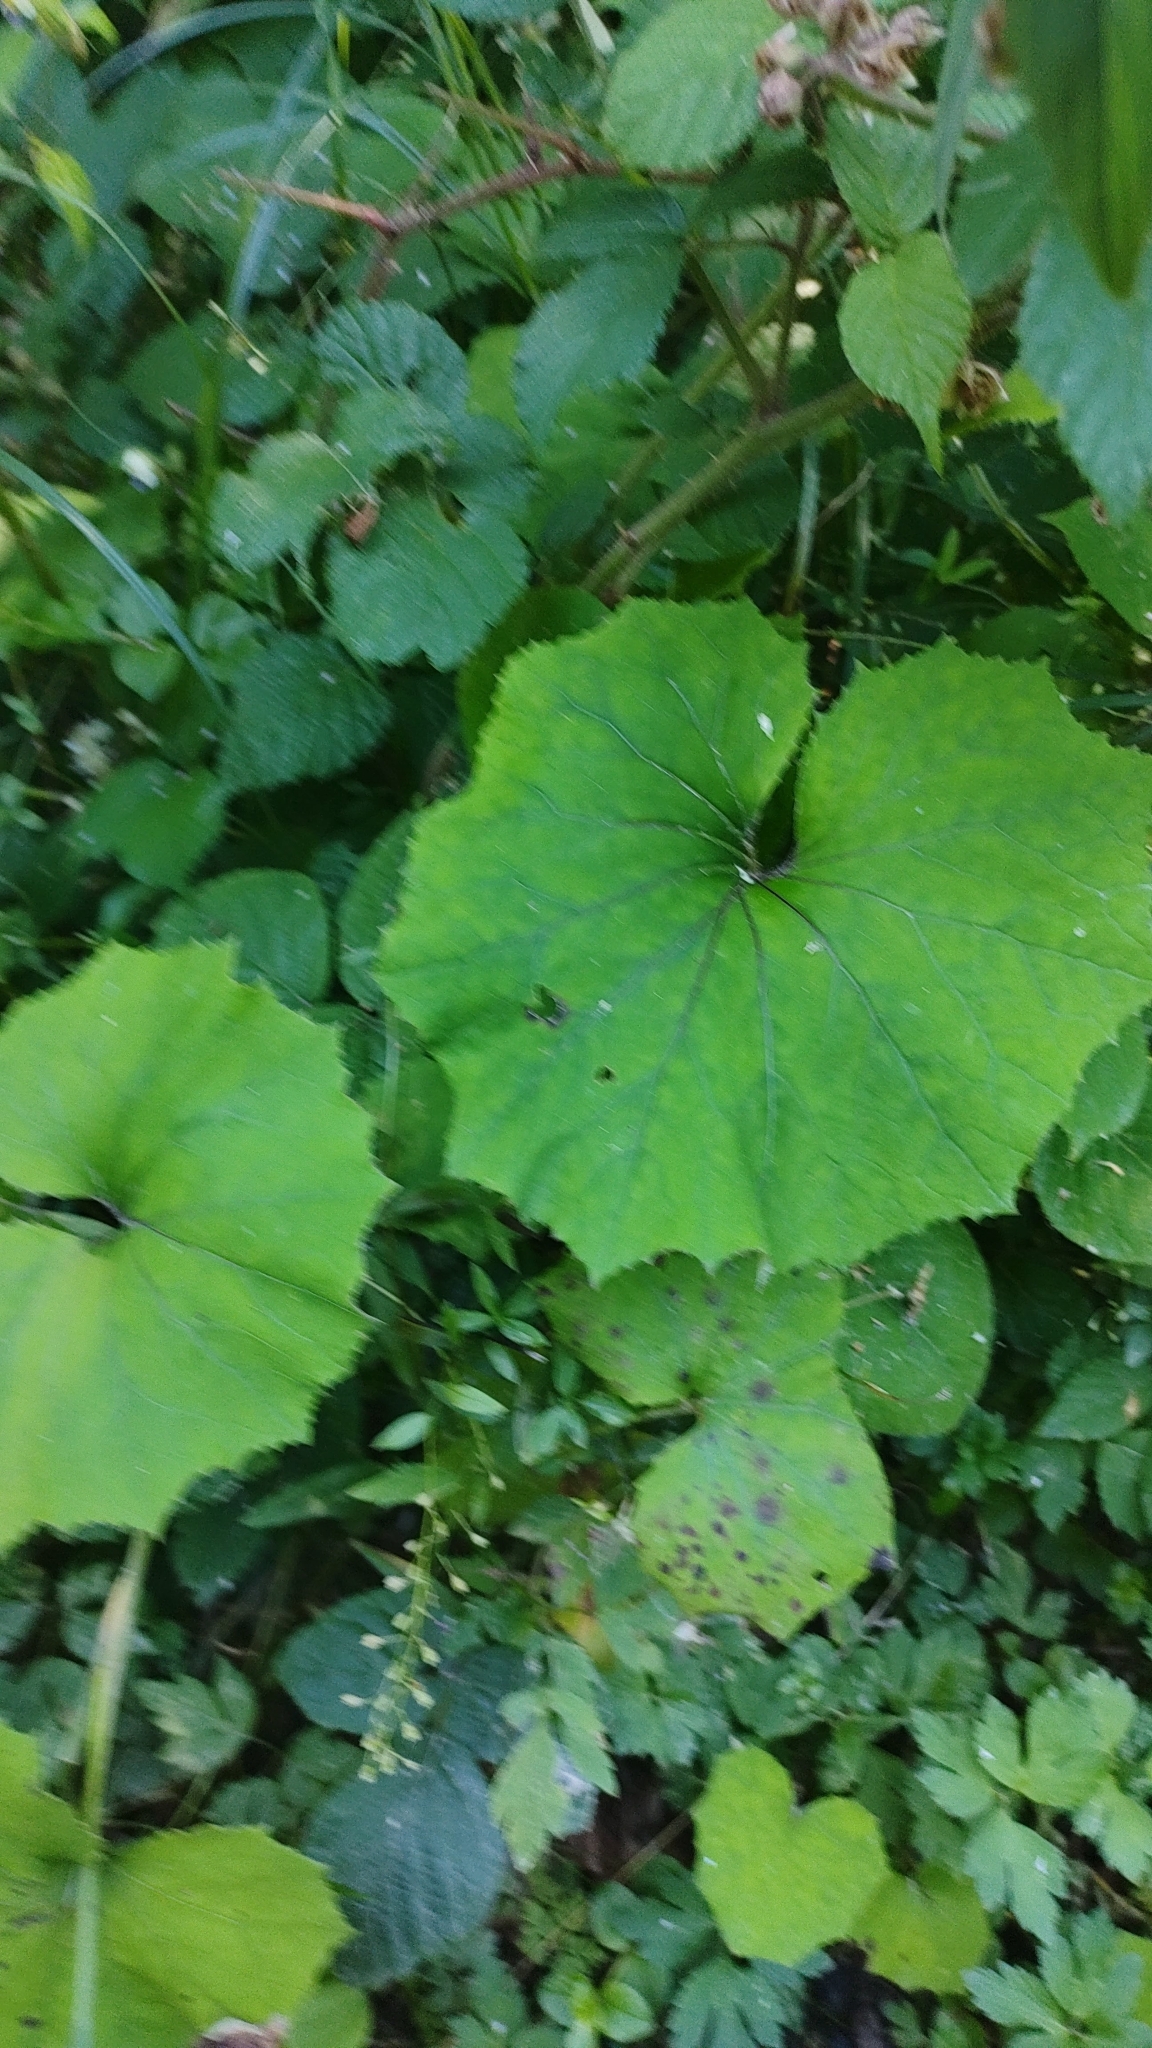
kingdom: Plantae
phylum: Tracheophyta
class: Magnoliopsida
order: Asterales
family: Asteraceae
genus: Tussilago
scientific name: Tussilago farfara
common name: Coltsfoot
